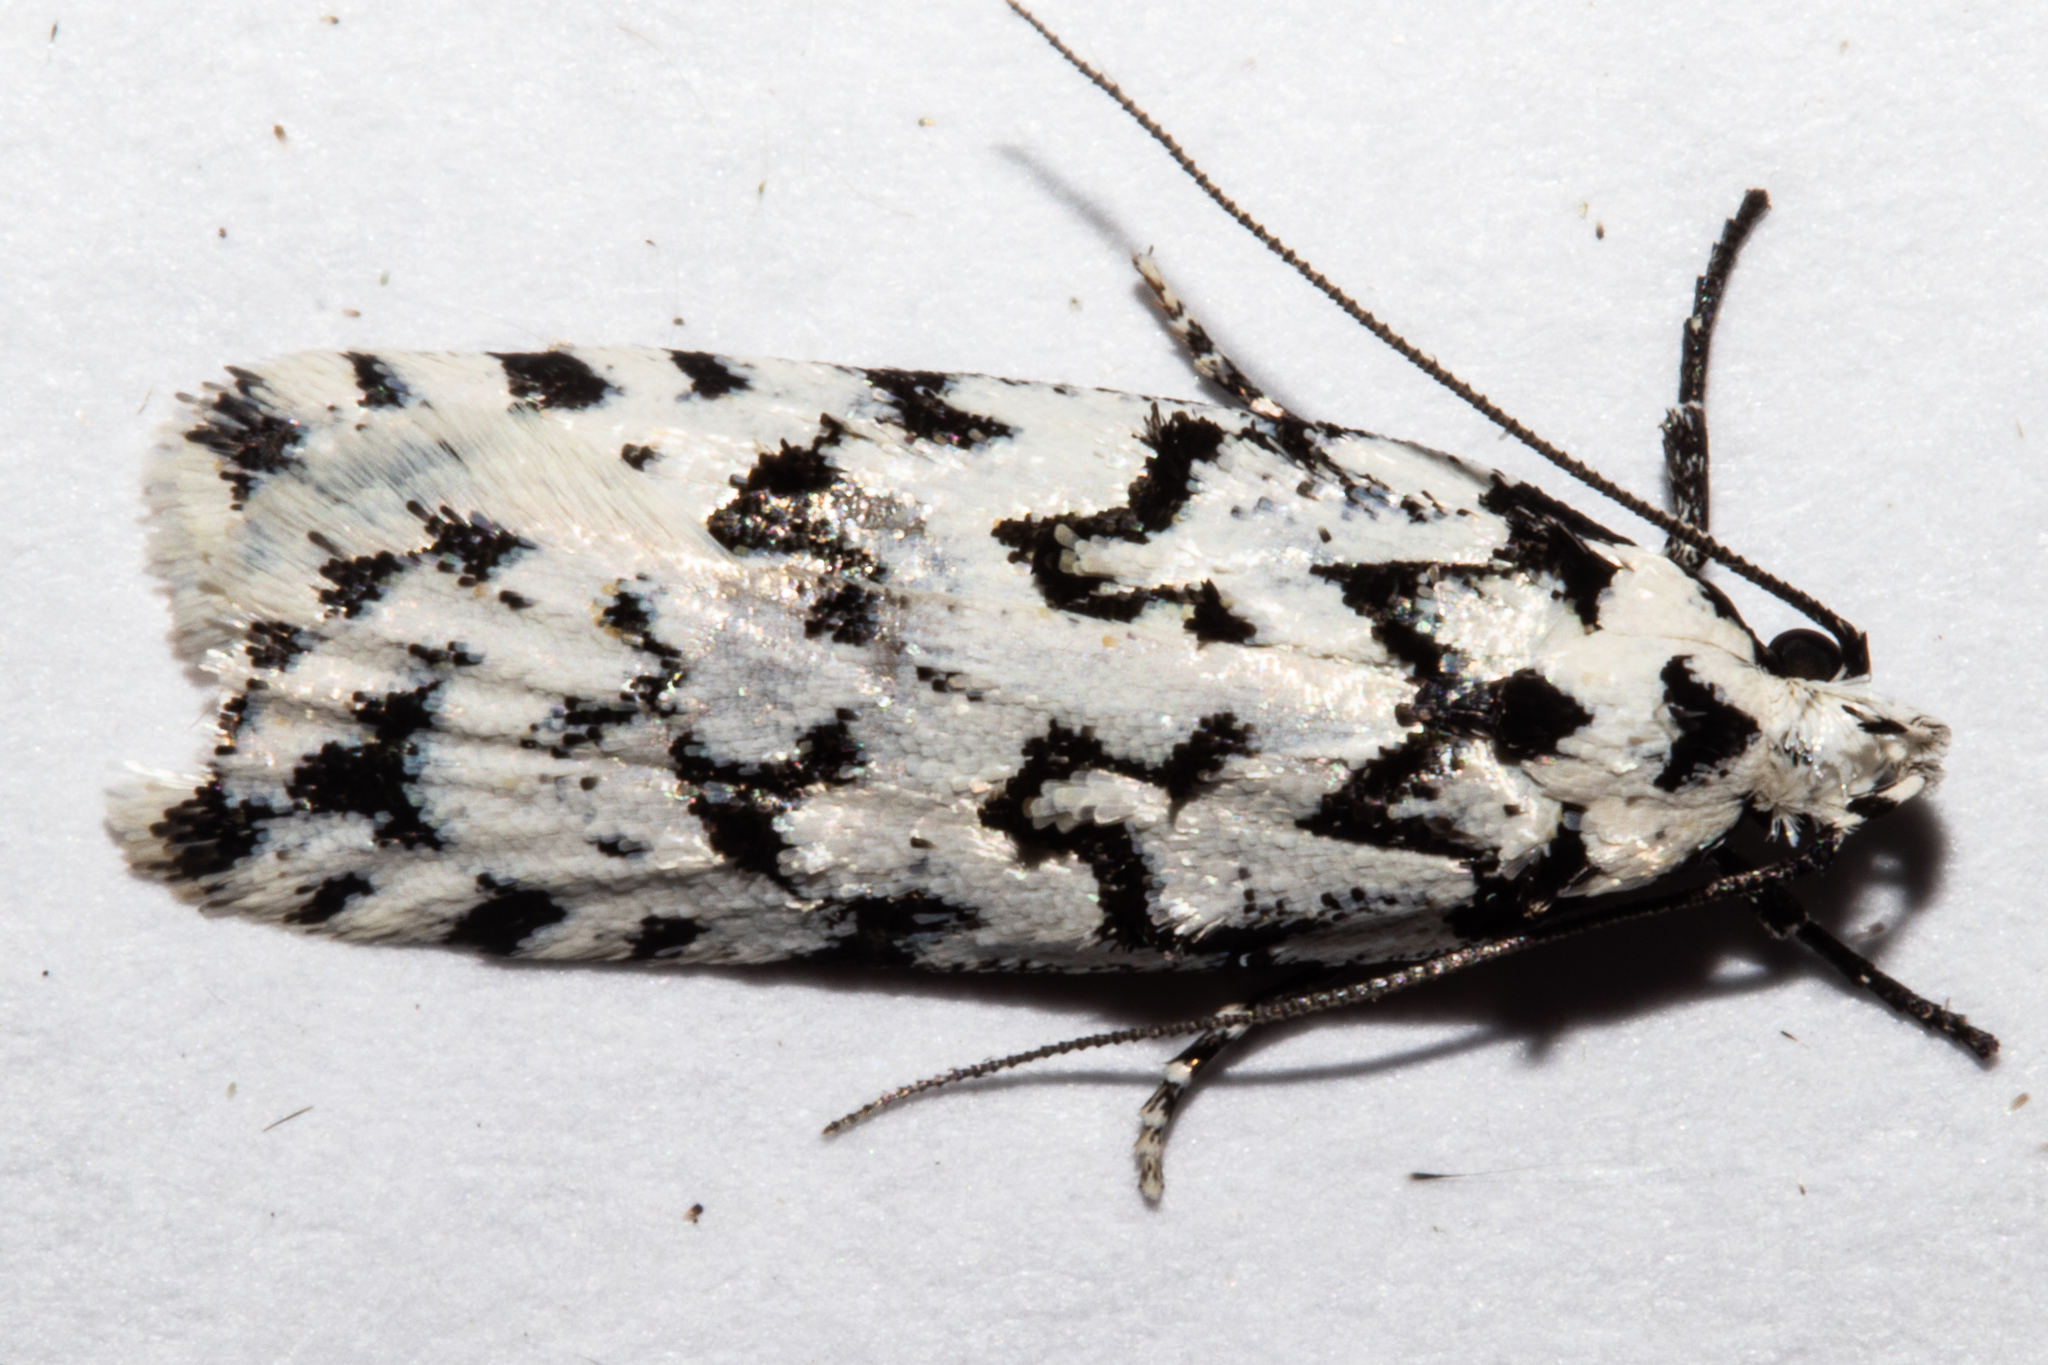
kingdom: Animalia
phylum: Arthropoda
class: Insecta
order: Lepidoptera
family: Oecophoridae
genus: Izatha
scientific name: Izatha katadiktya
